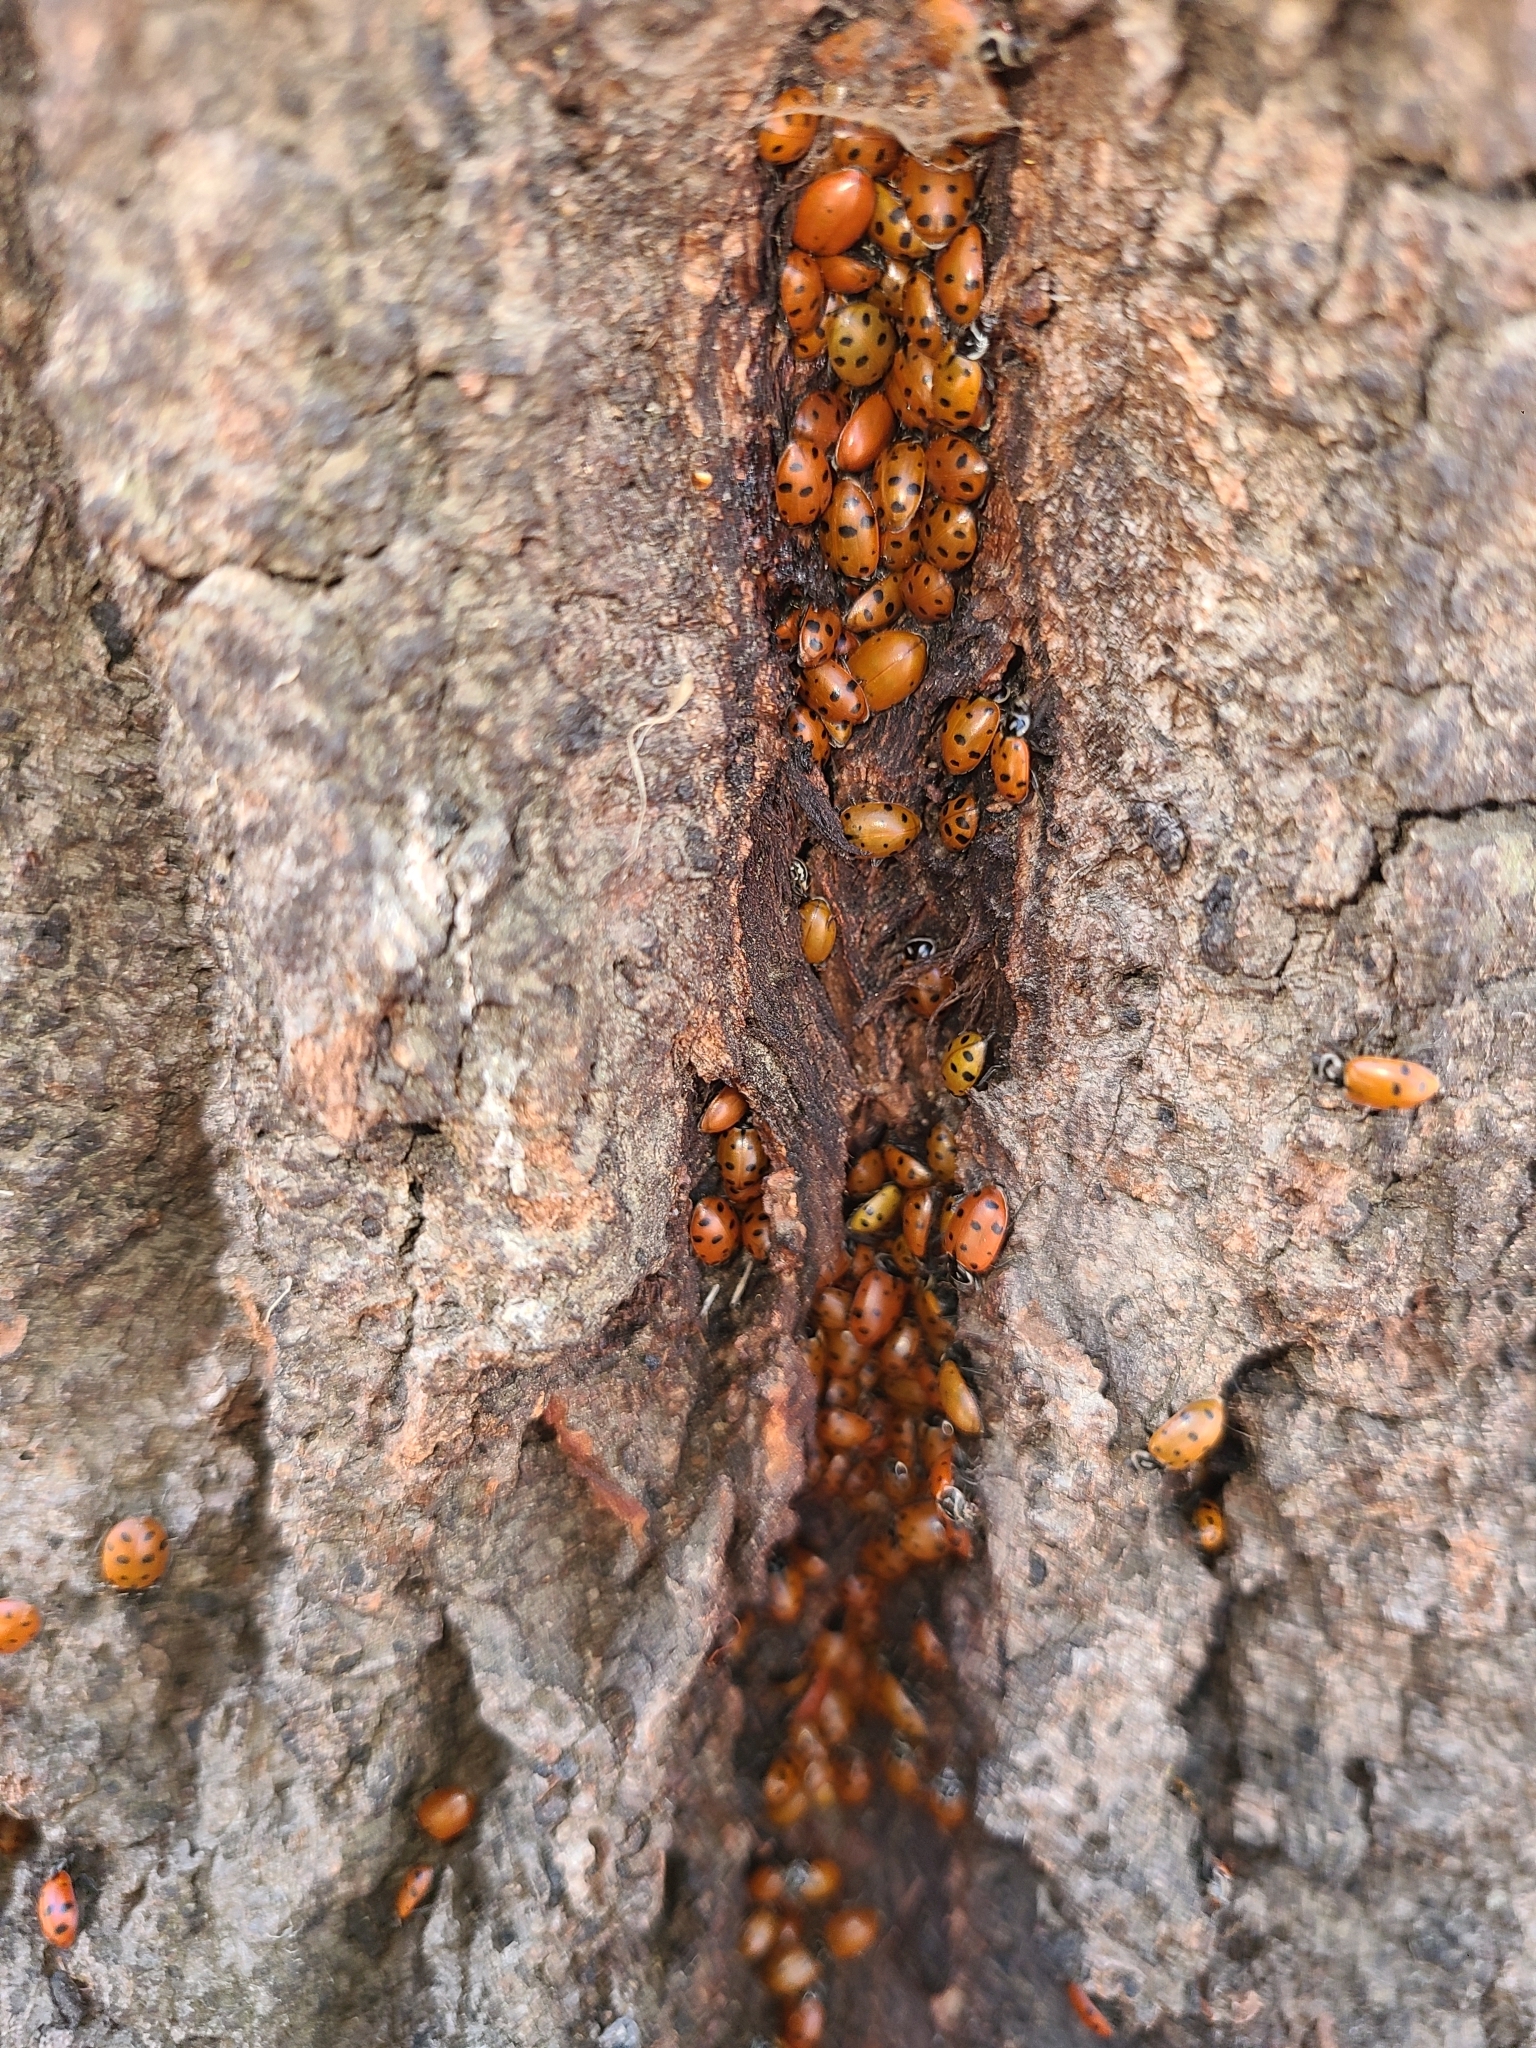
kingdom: Animalia
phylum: Arthropoda
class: Insecta
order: Coleoptera
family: Coccinellidae
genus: Hippodamia
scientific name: Hippodamia convergens
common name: Convergent lady beetle
